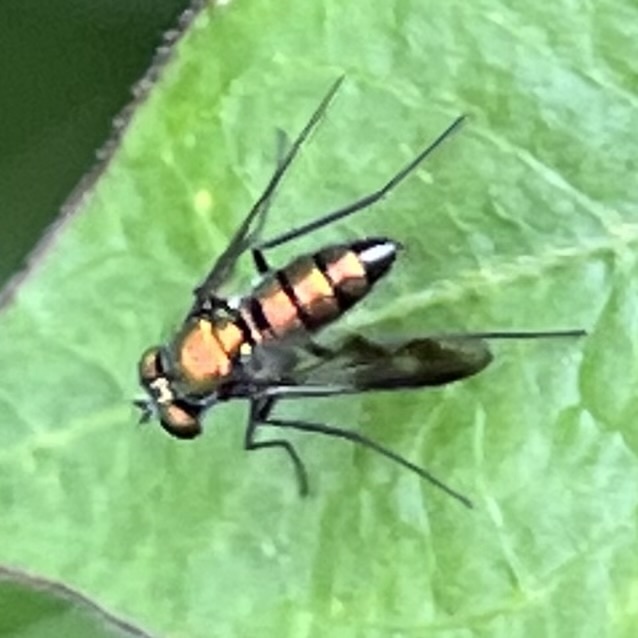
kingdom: Animalia
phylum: Arthropoda
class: Insecta
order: Diptera
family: Dolichopodidae
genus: Condylostylus
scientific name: Condylostylus patibulatus
